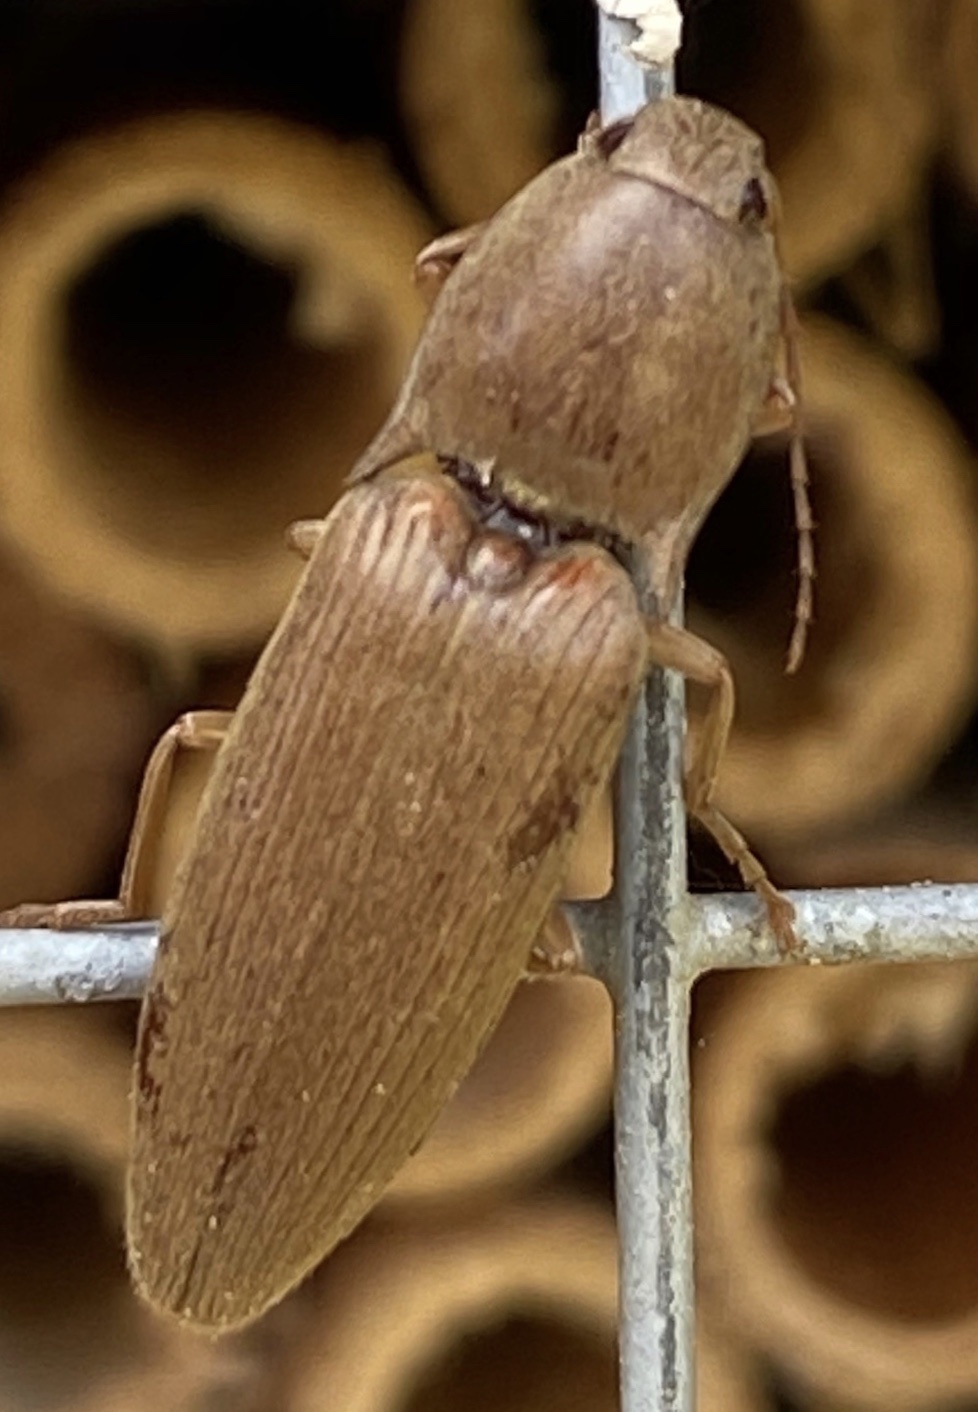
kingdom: Animalia
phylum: Arthropoda
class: Insecta
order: Coleoptera
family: Elateridae
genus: Monocrepidius
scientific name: Monocrepidius lividus
